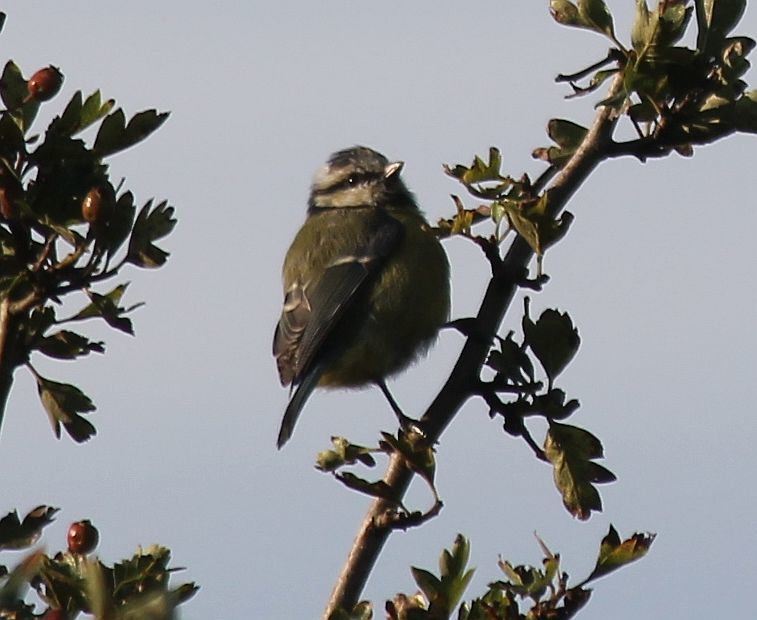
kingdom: Animalia
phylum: Chordata
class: Aves
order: Passeriformes
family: Paridae
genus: Cyanistes
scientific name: Cyanistes caeruleus
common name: Eurasian blue tit
